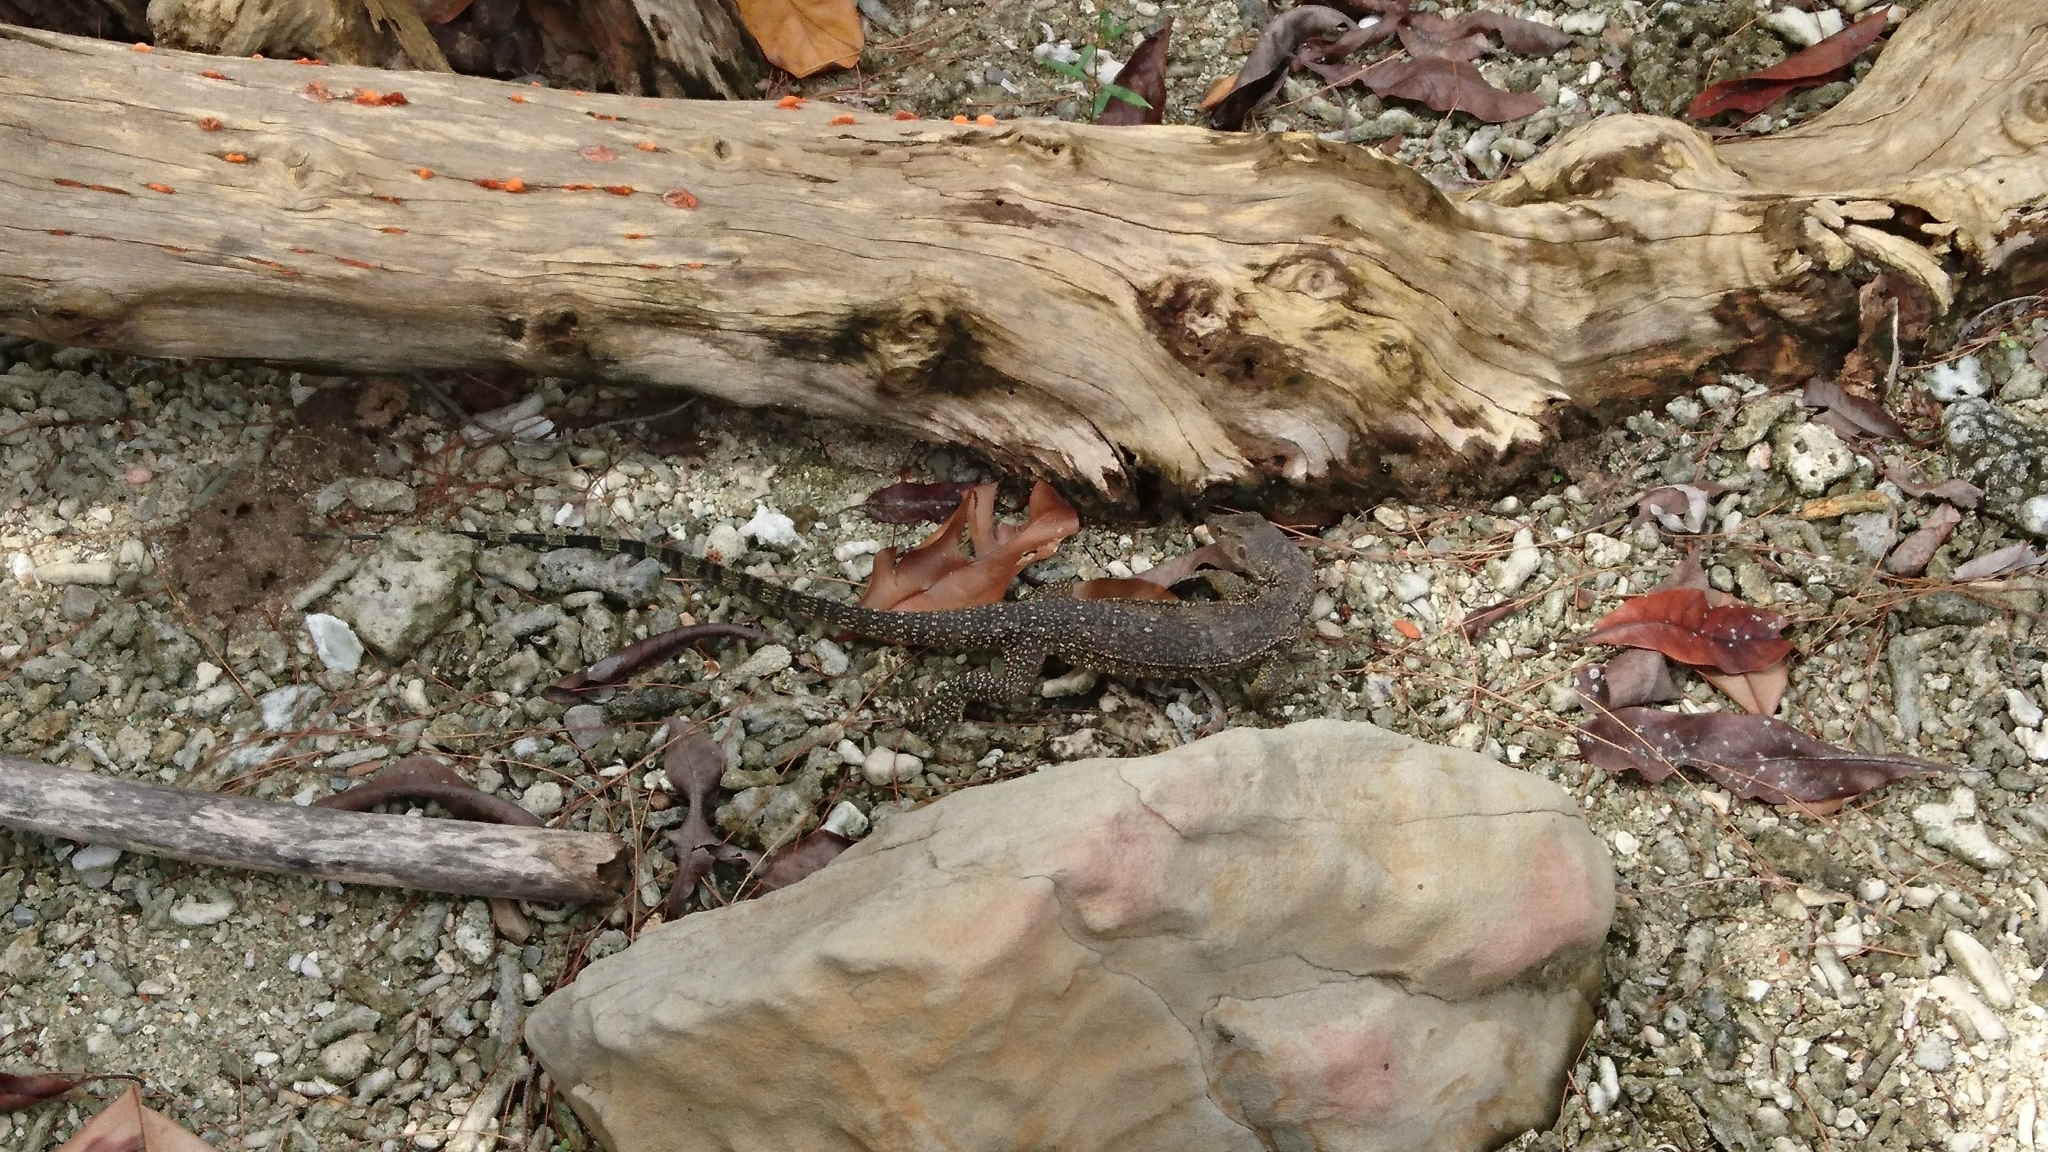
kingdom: Animalia
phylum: Chordata
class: Squamata
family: Varanidae
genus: Varanus
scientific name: Varanus salvator
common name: Common water monitor
